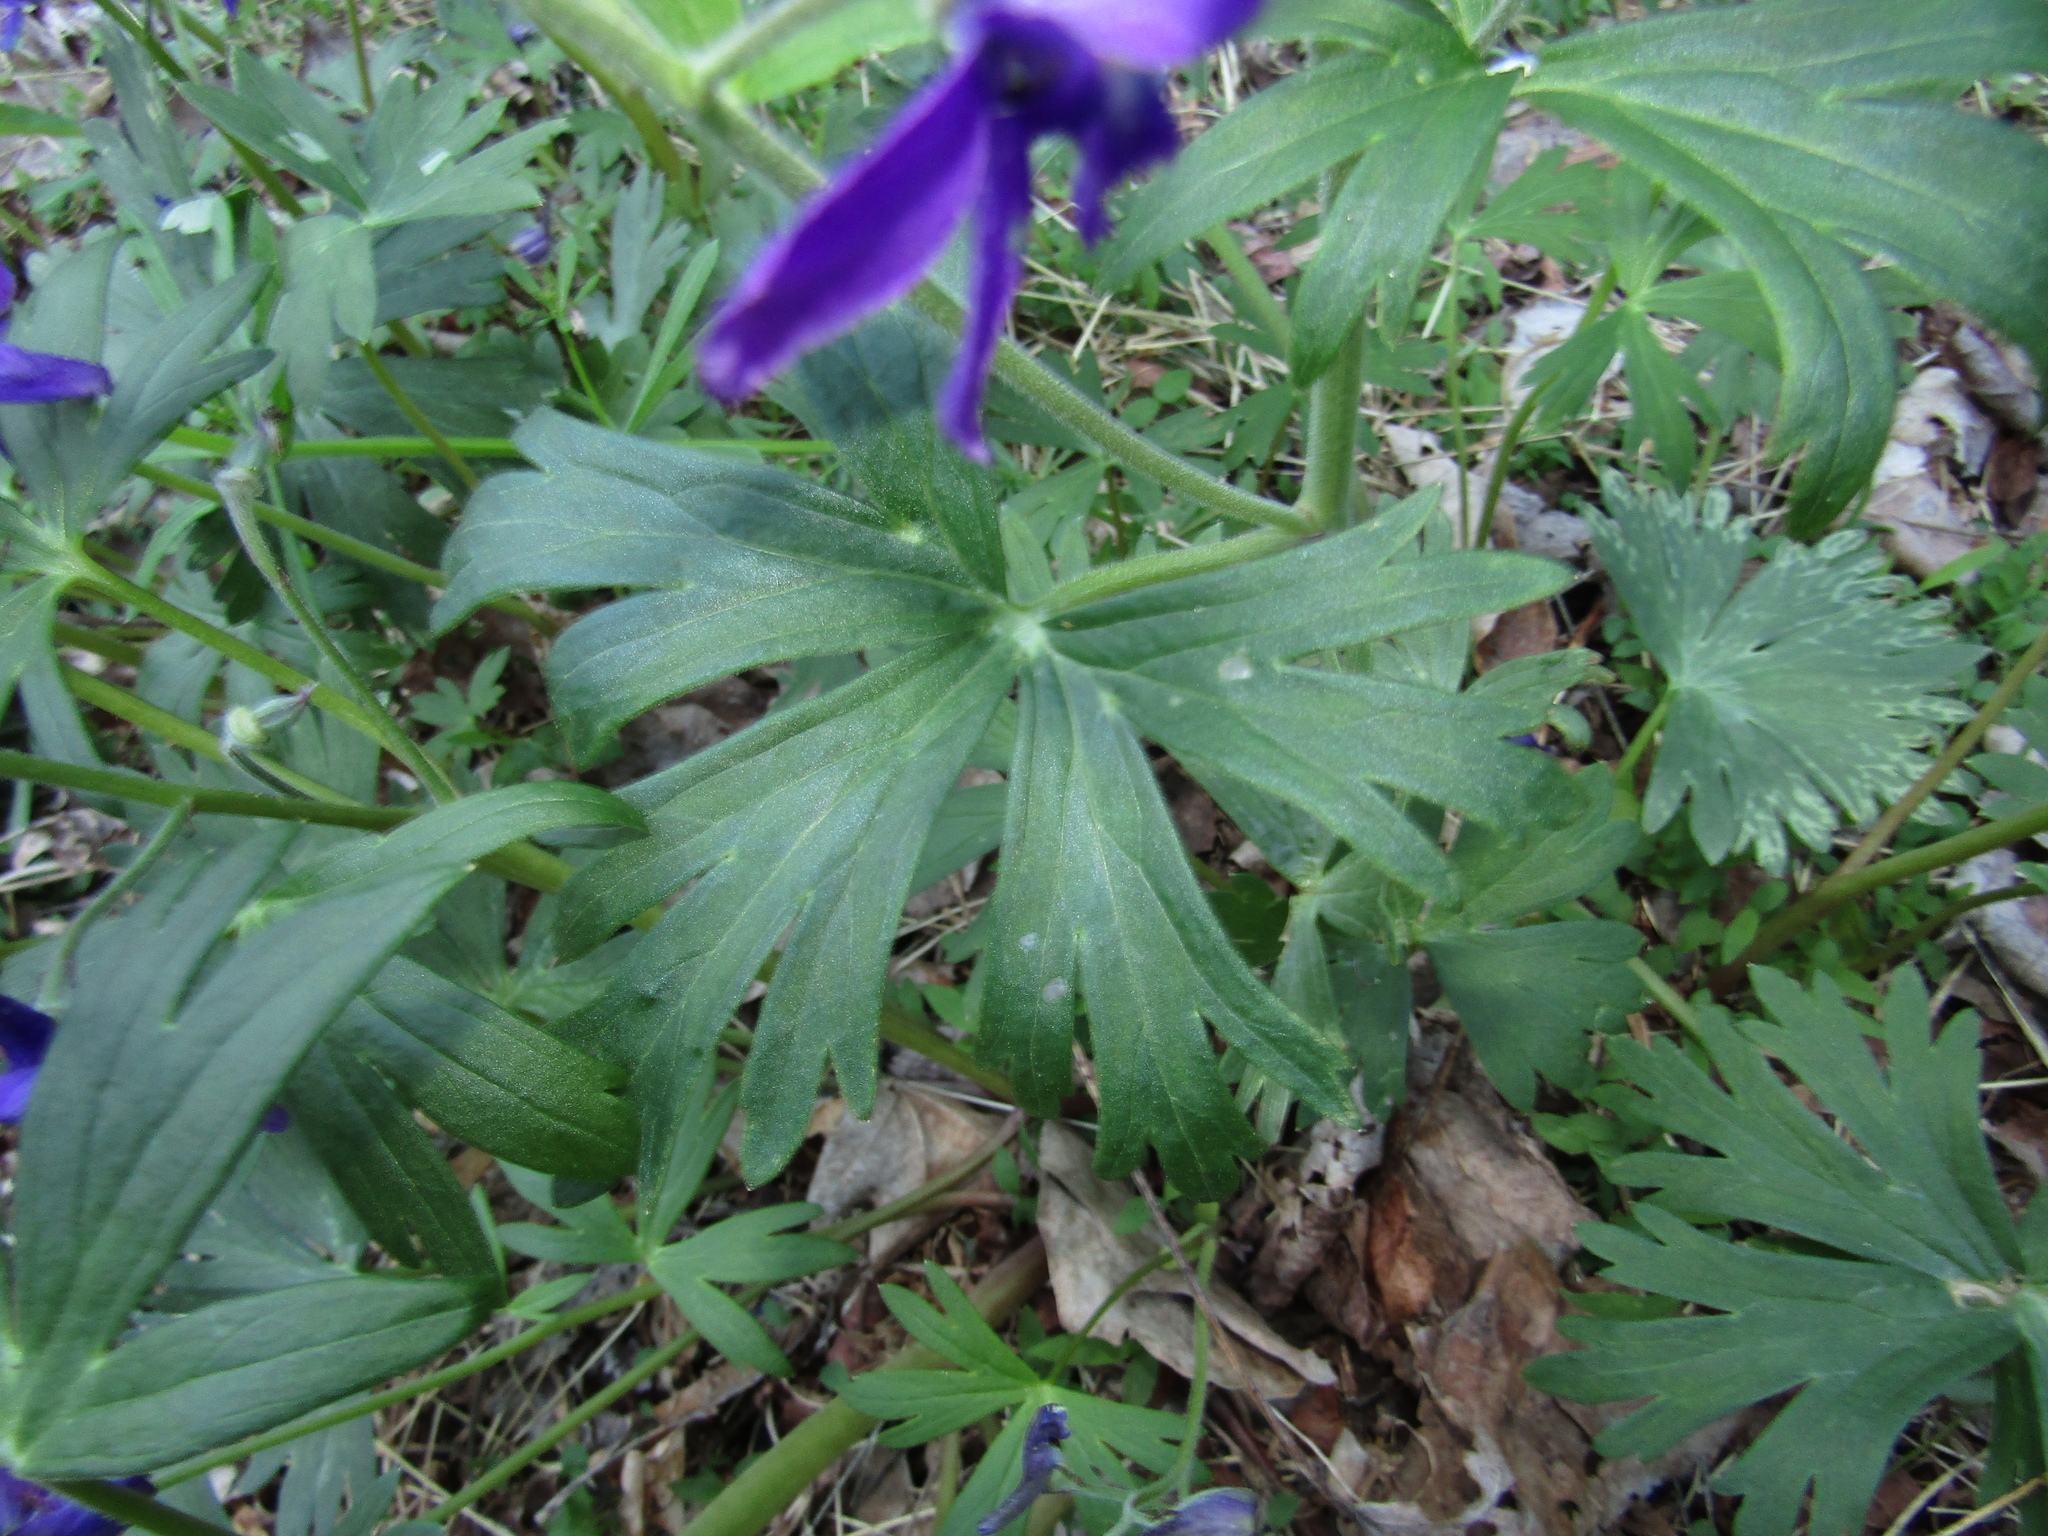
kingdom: Plantae
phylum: Tracheophyta
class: Magnoliopsida
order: Ranunculales
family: Ranunculaceae
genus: Delphinium
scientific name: Delphinium tricorne
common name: Dwarf larkspur
